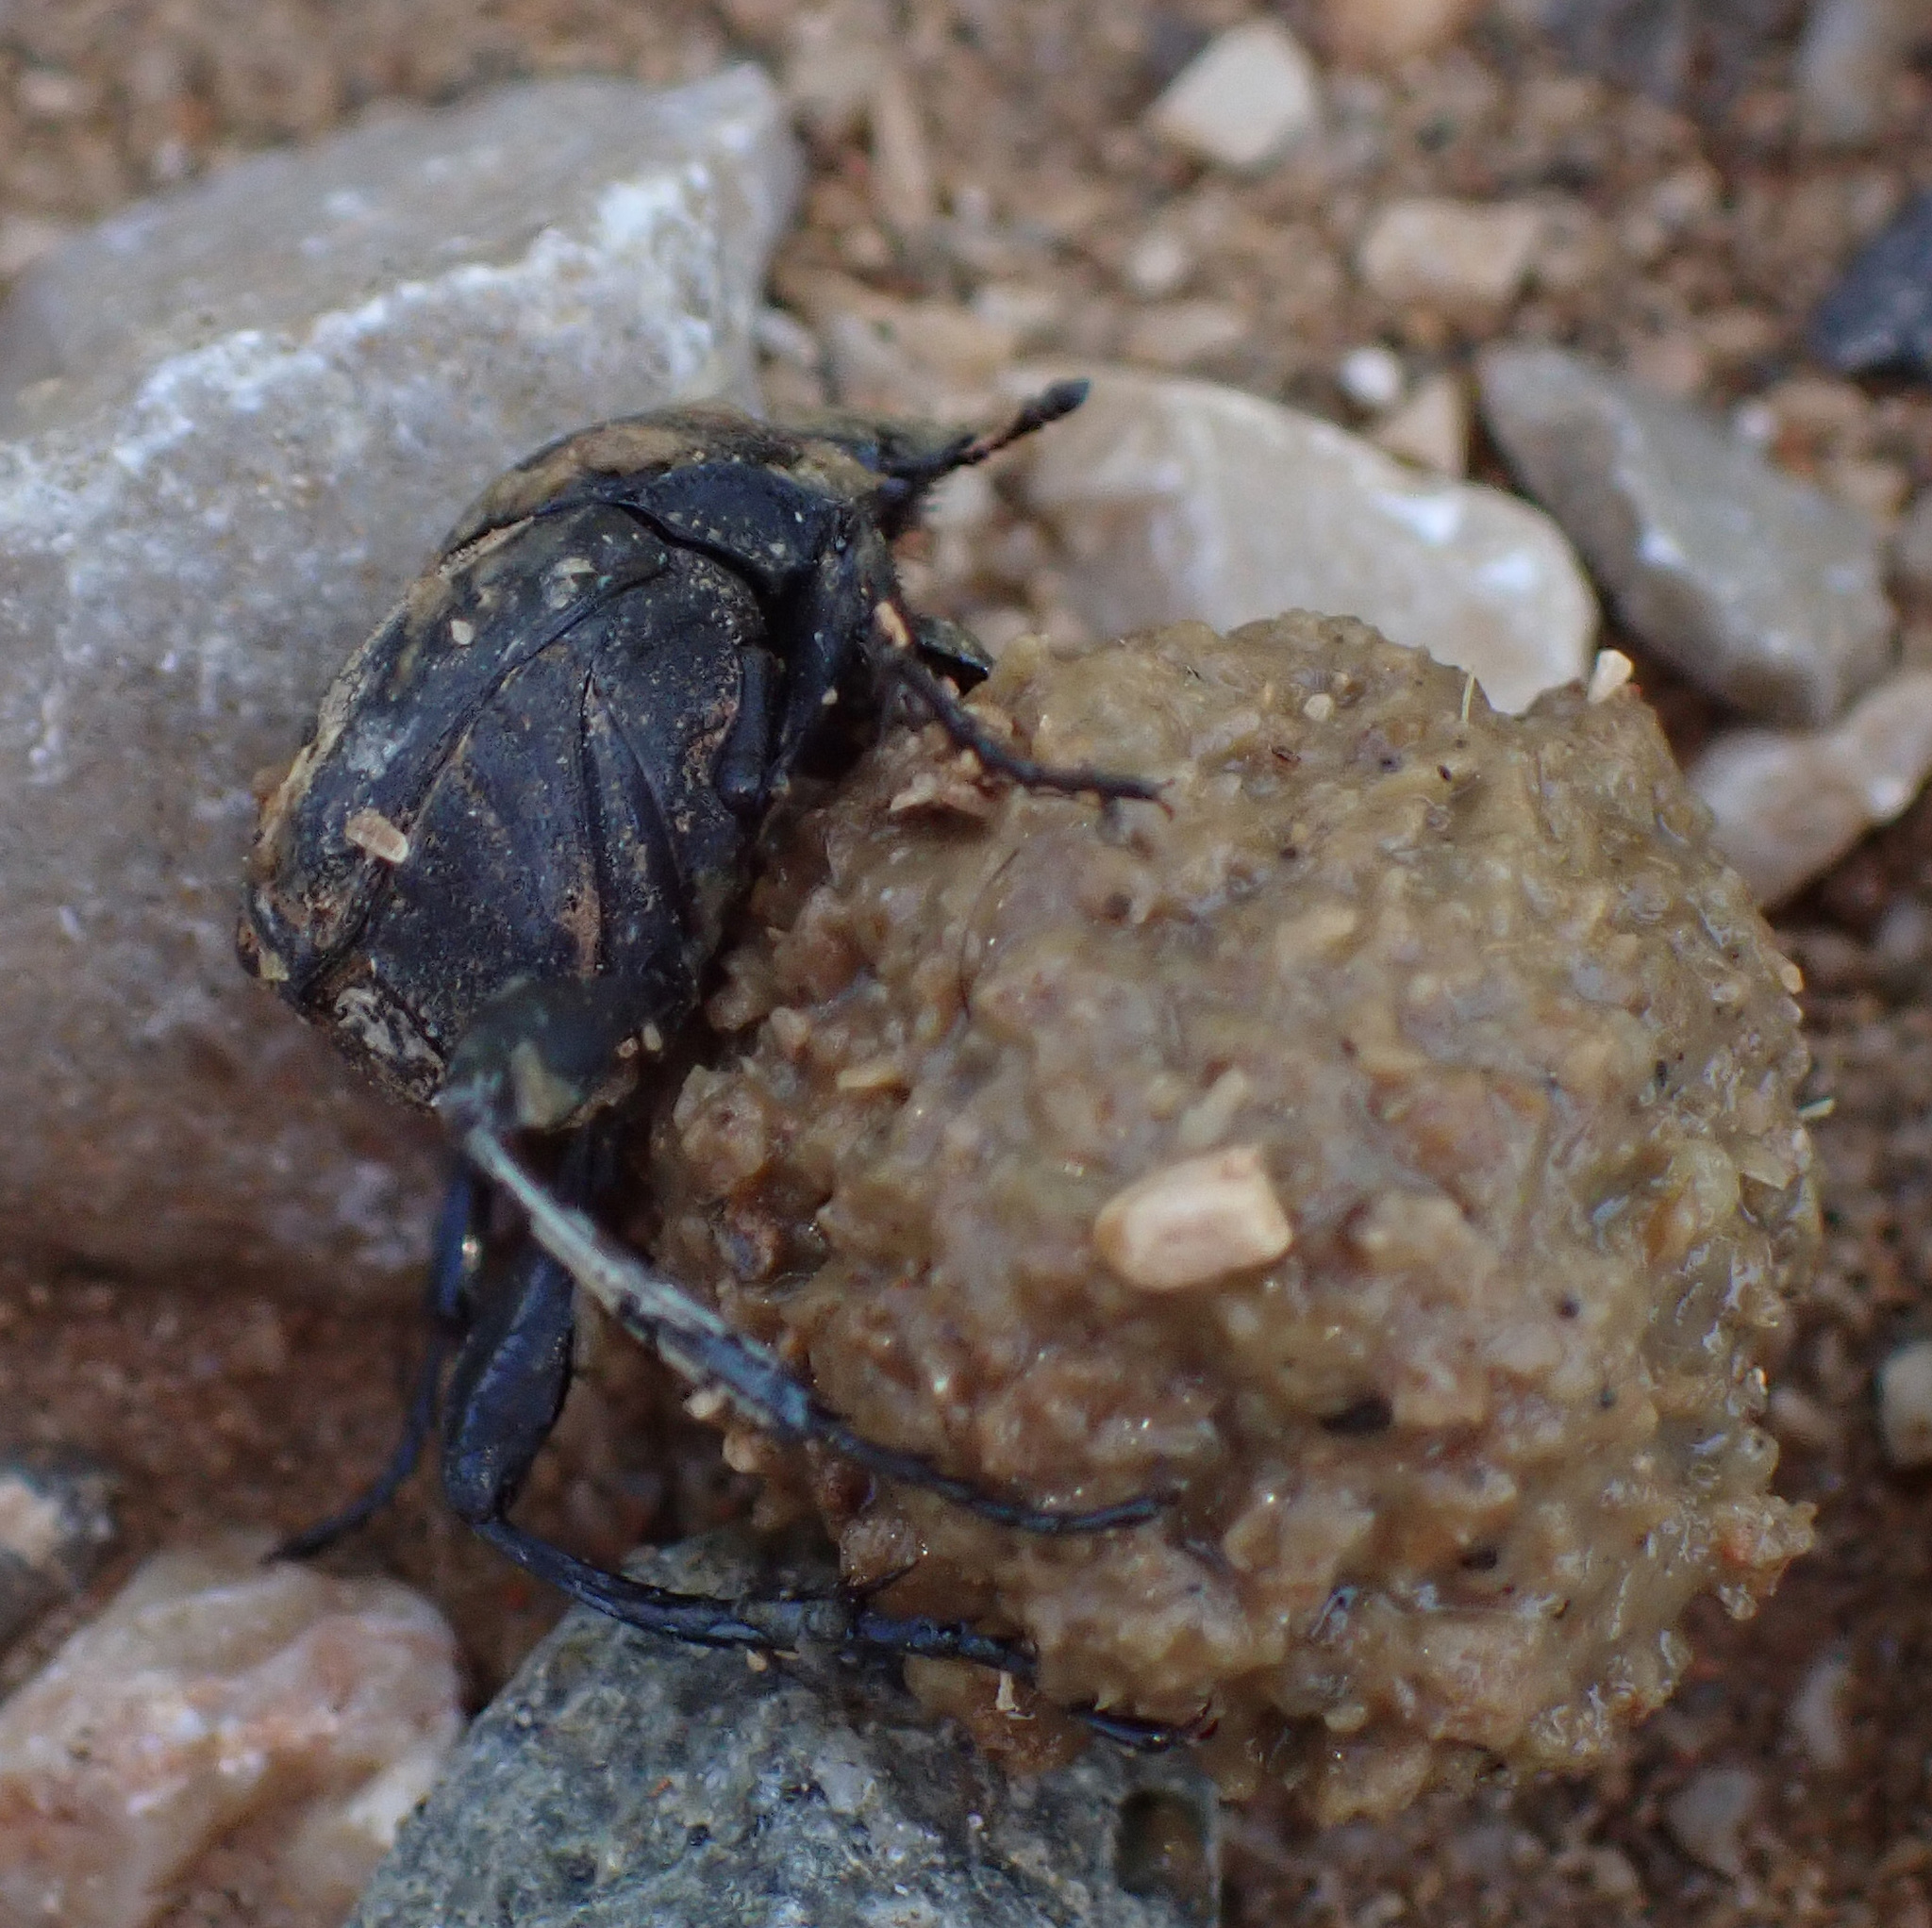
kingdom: Animalia
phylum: Arthropoda
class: Insecta
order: Coleoptera
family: Scarabaeidae
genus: Sisyphus
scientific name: Sisyphus schaefferi
